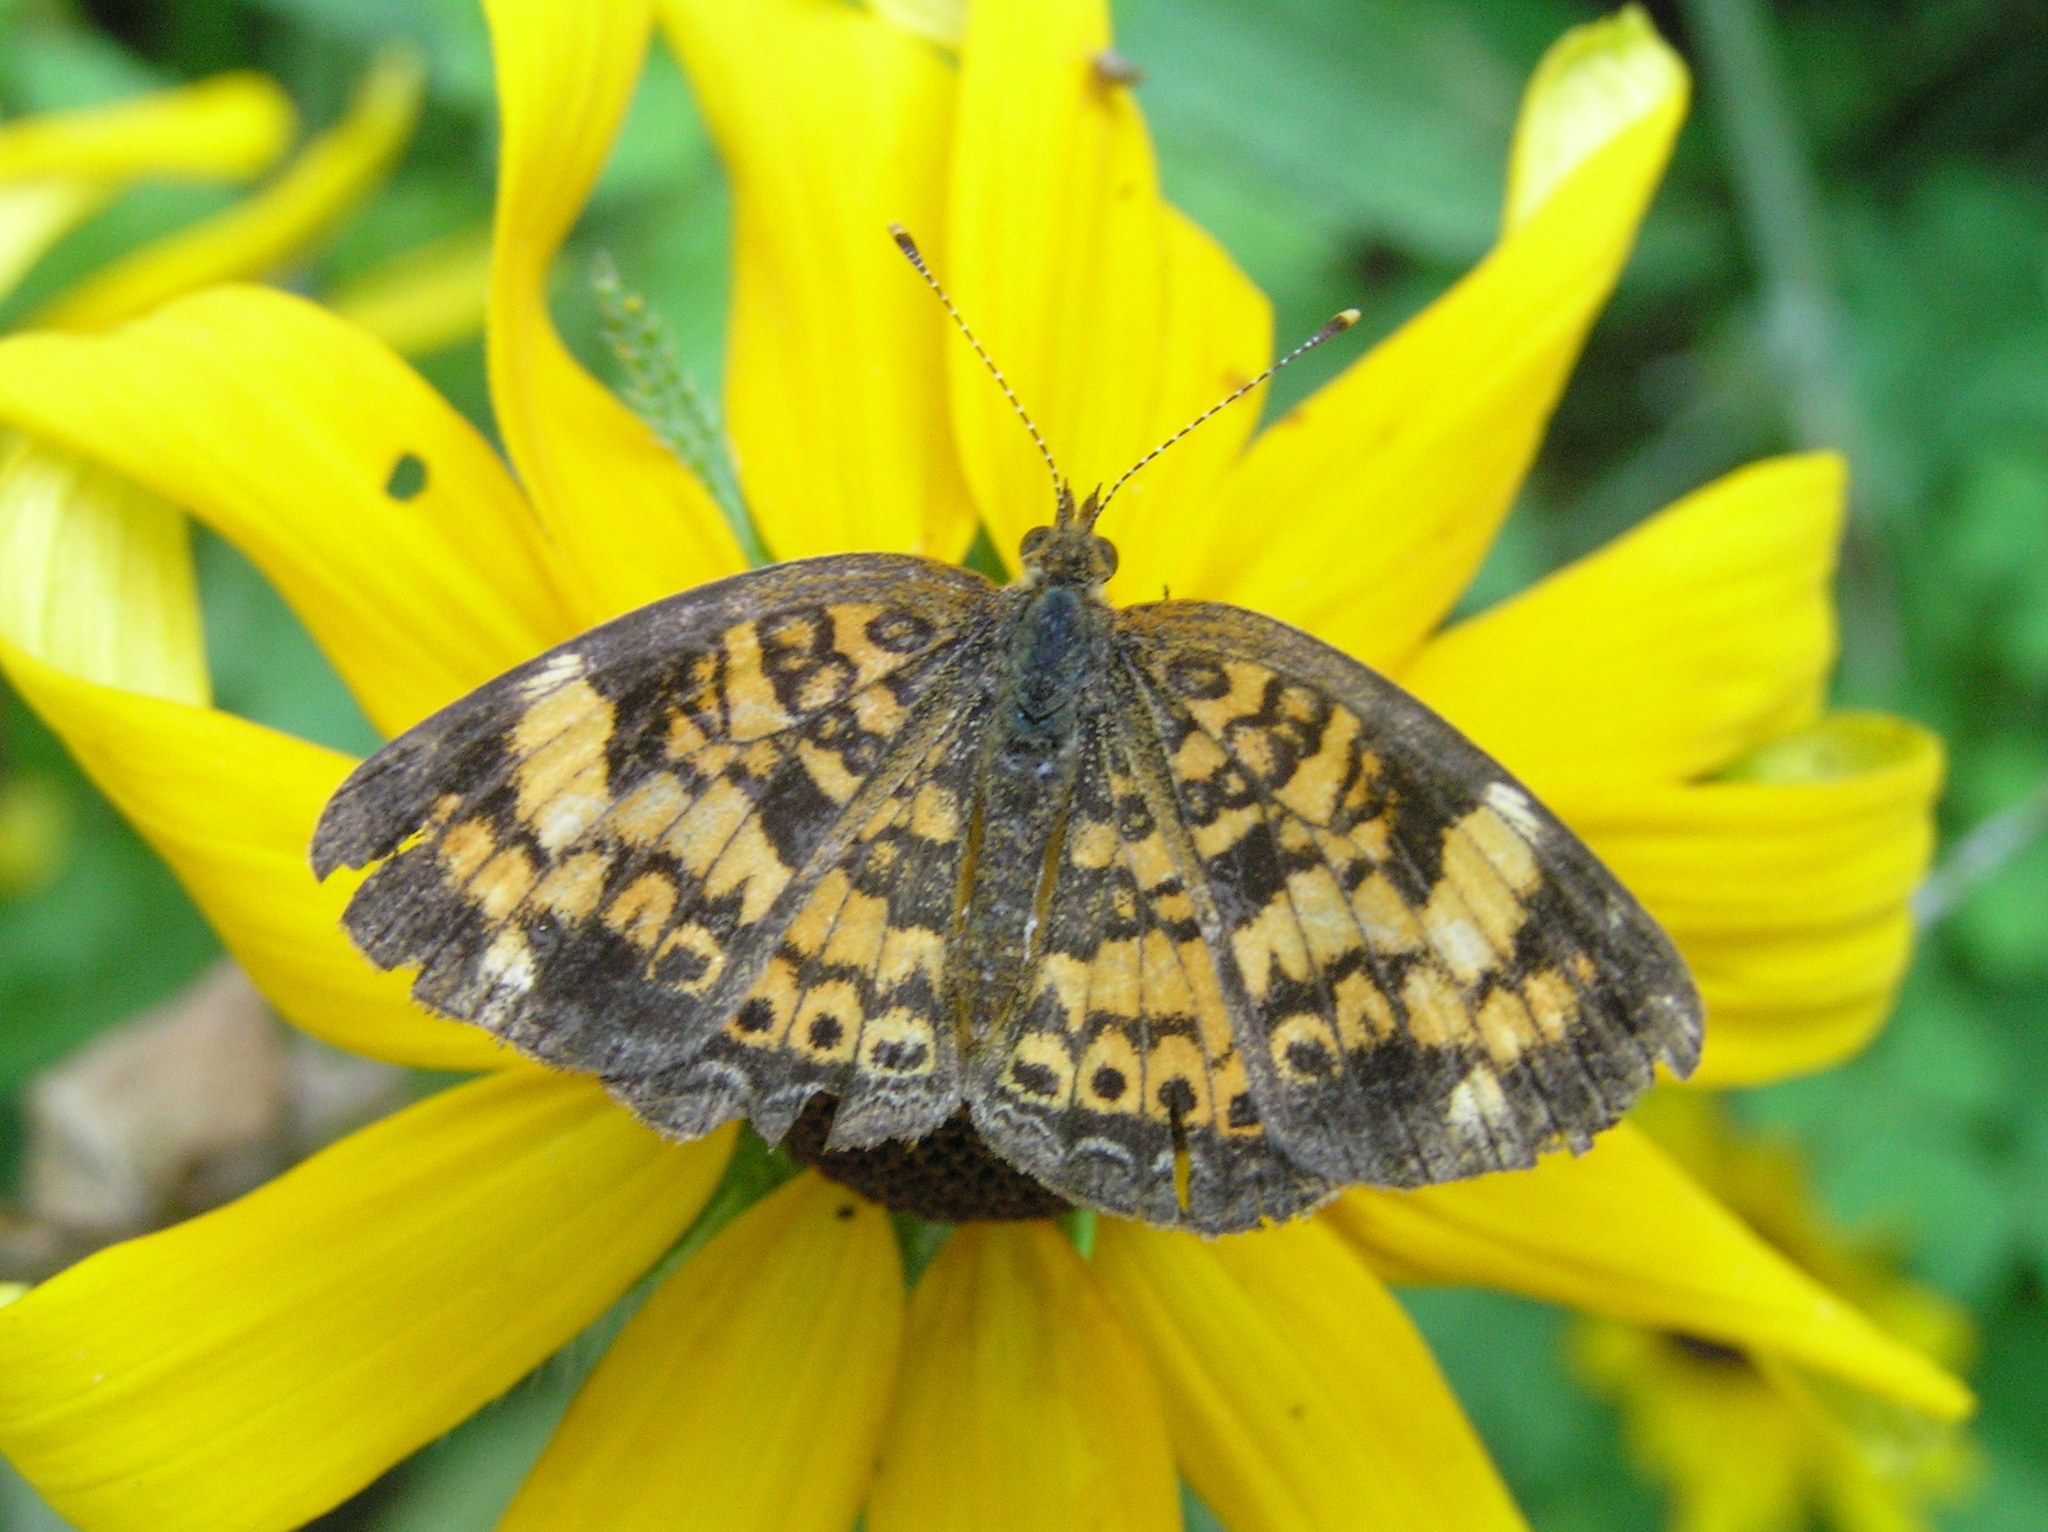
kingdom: Animalia
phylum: Arthropoda
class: Insecta
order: Lepidoptera
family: Nymphalidae
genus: Phyciodes
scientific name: Phyciodes tharos
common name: Pearl crescent
